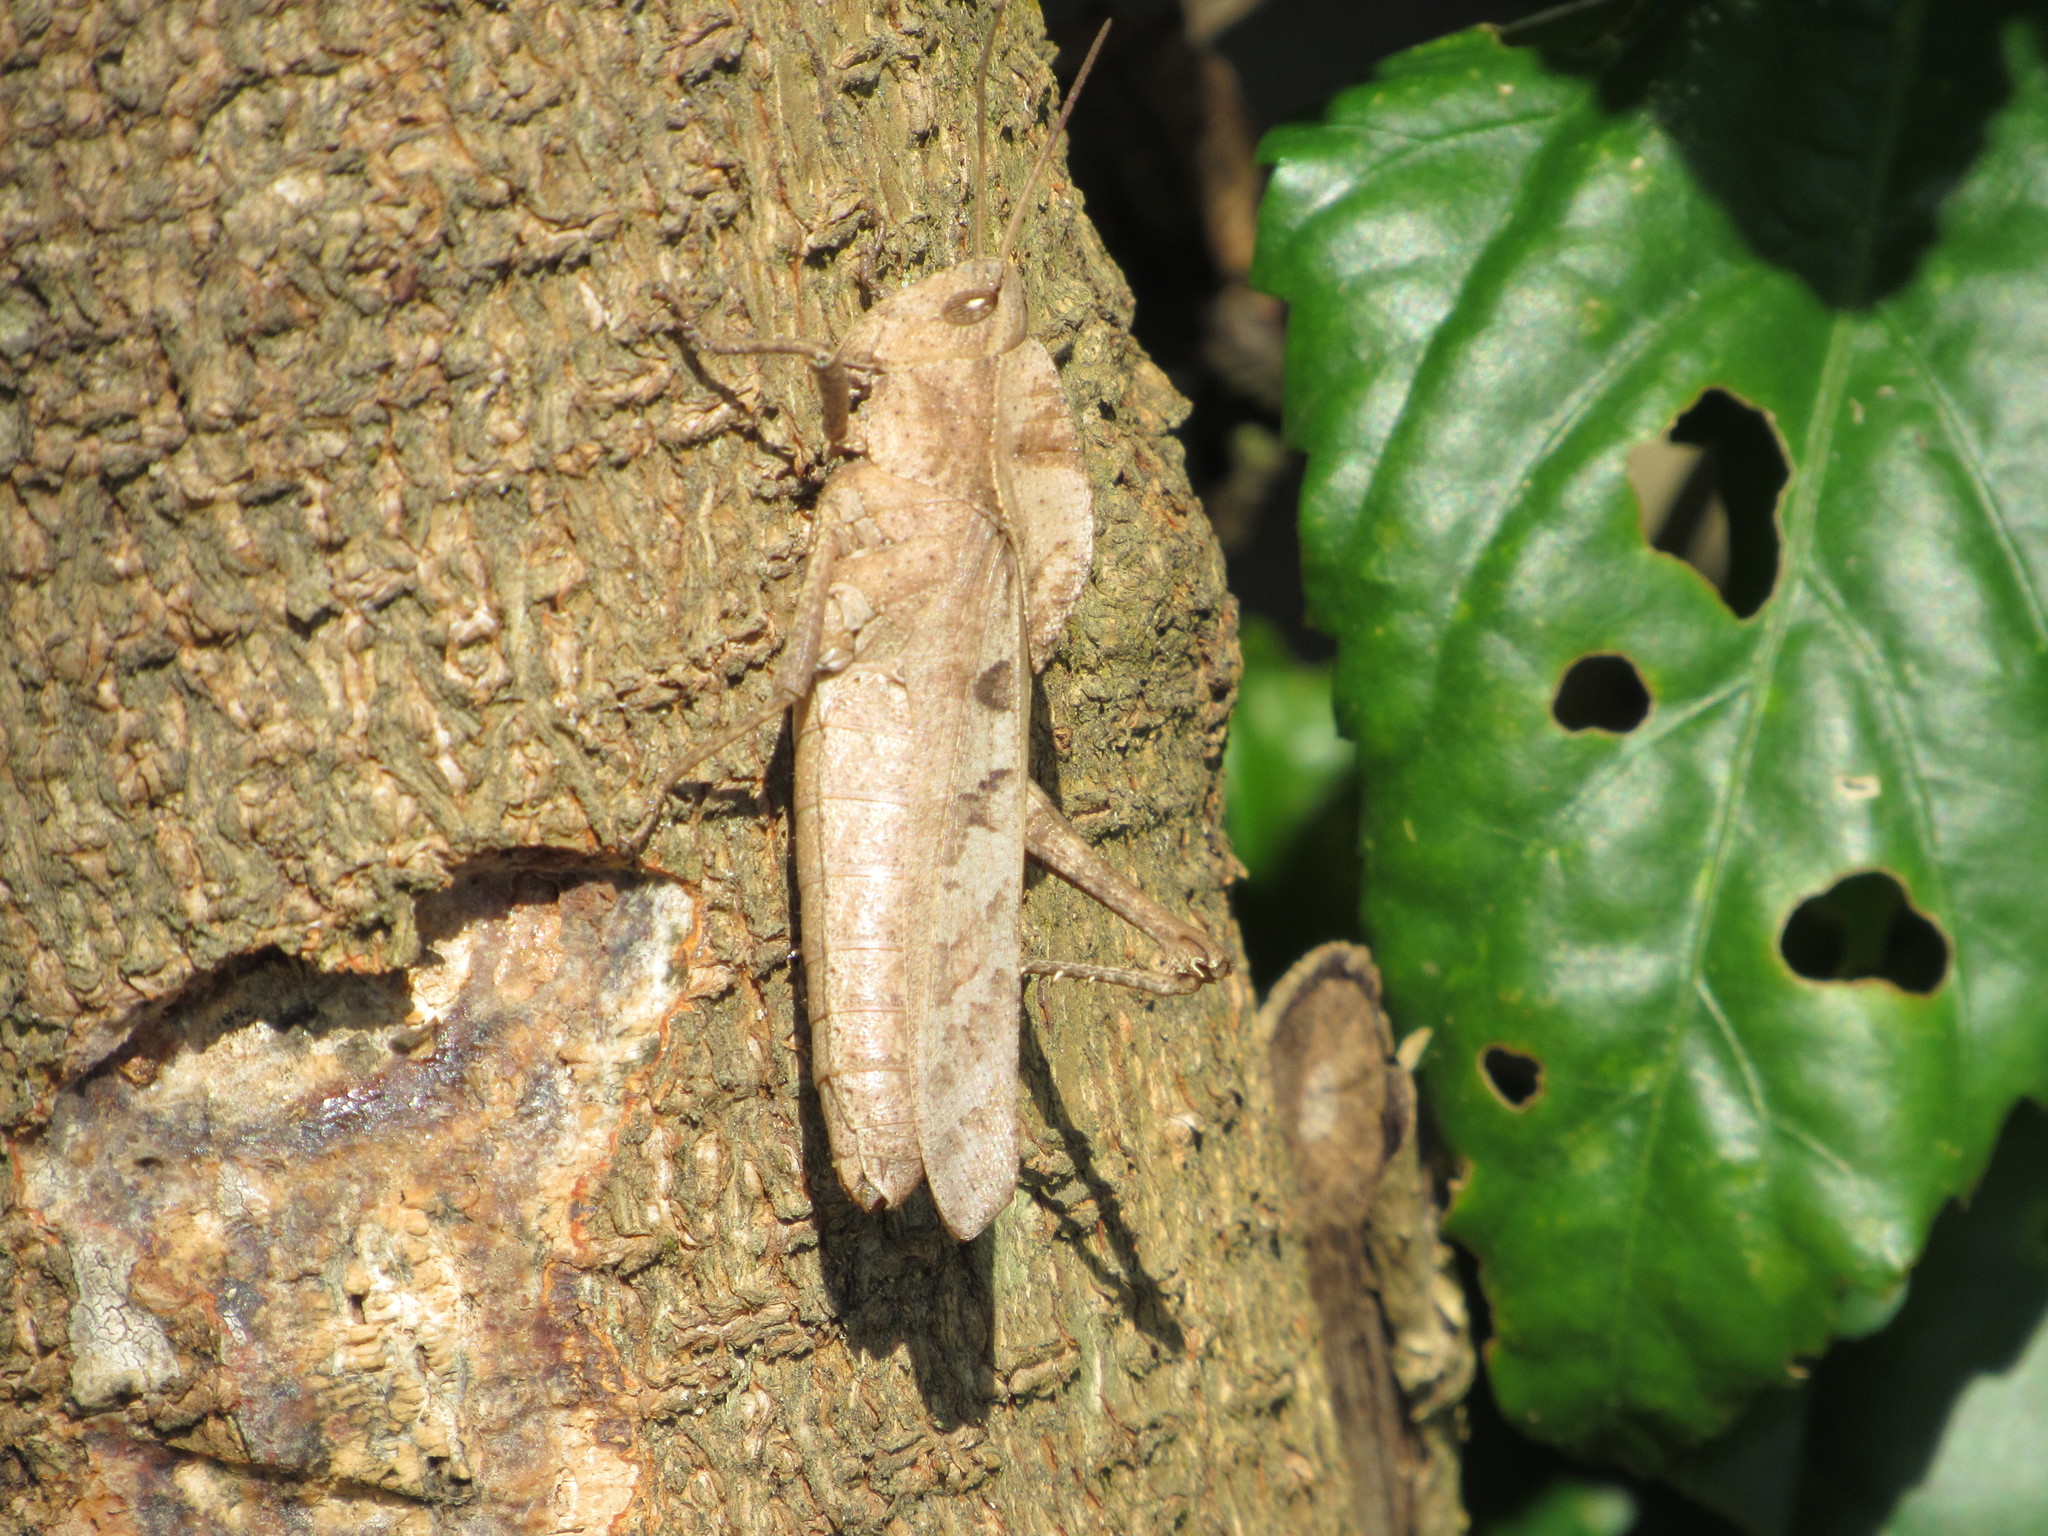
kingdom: Animalia
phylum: Arthropoda
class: Insecta
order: Orthoptera
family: Romaleidae
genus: Xyleus
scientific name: Xyleus discoideus
